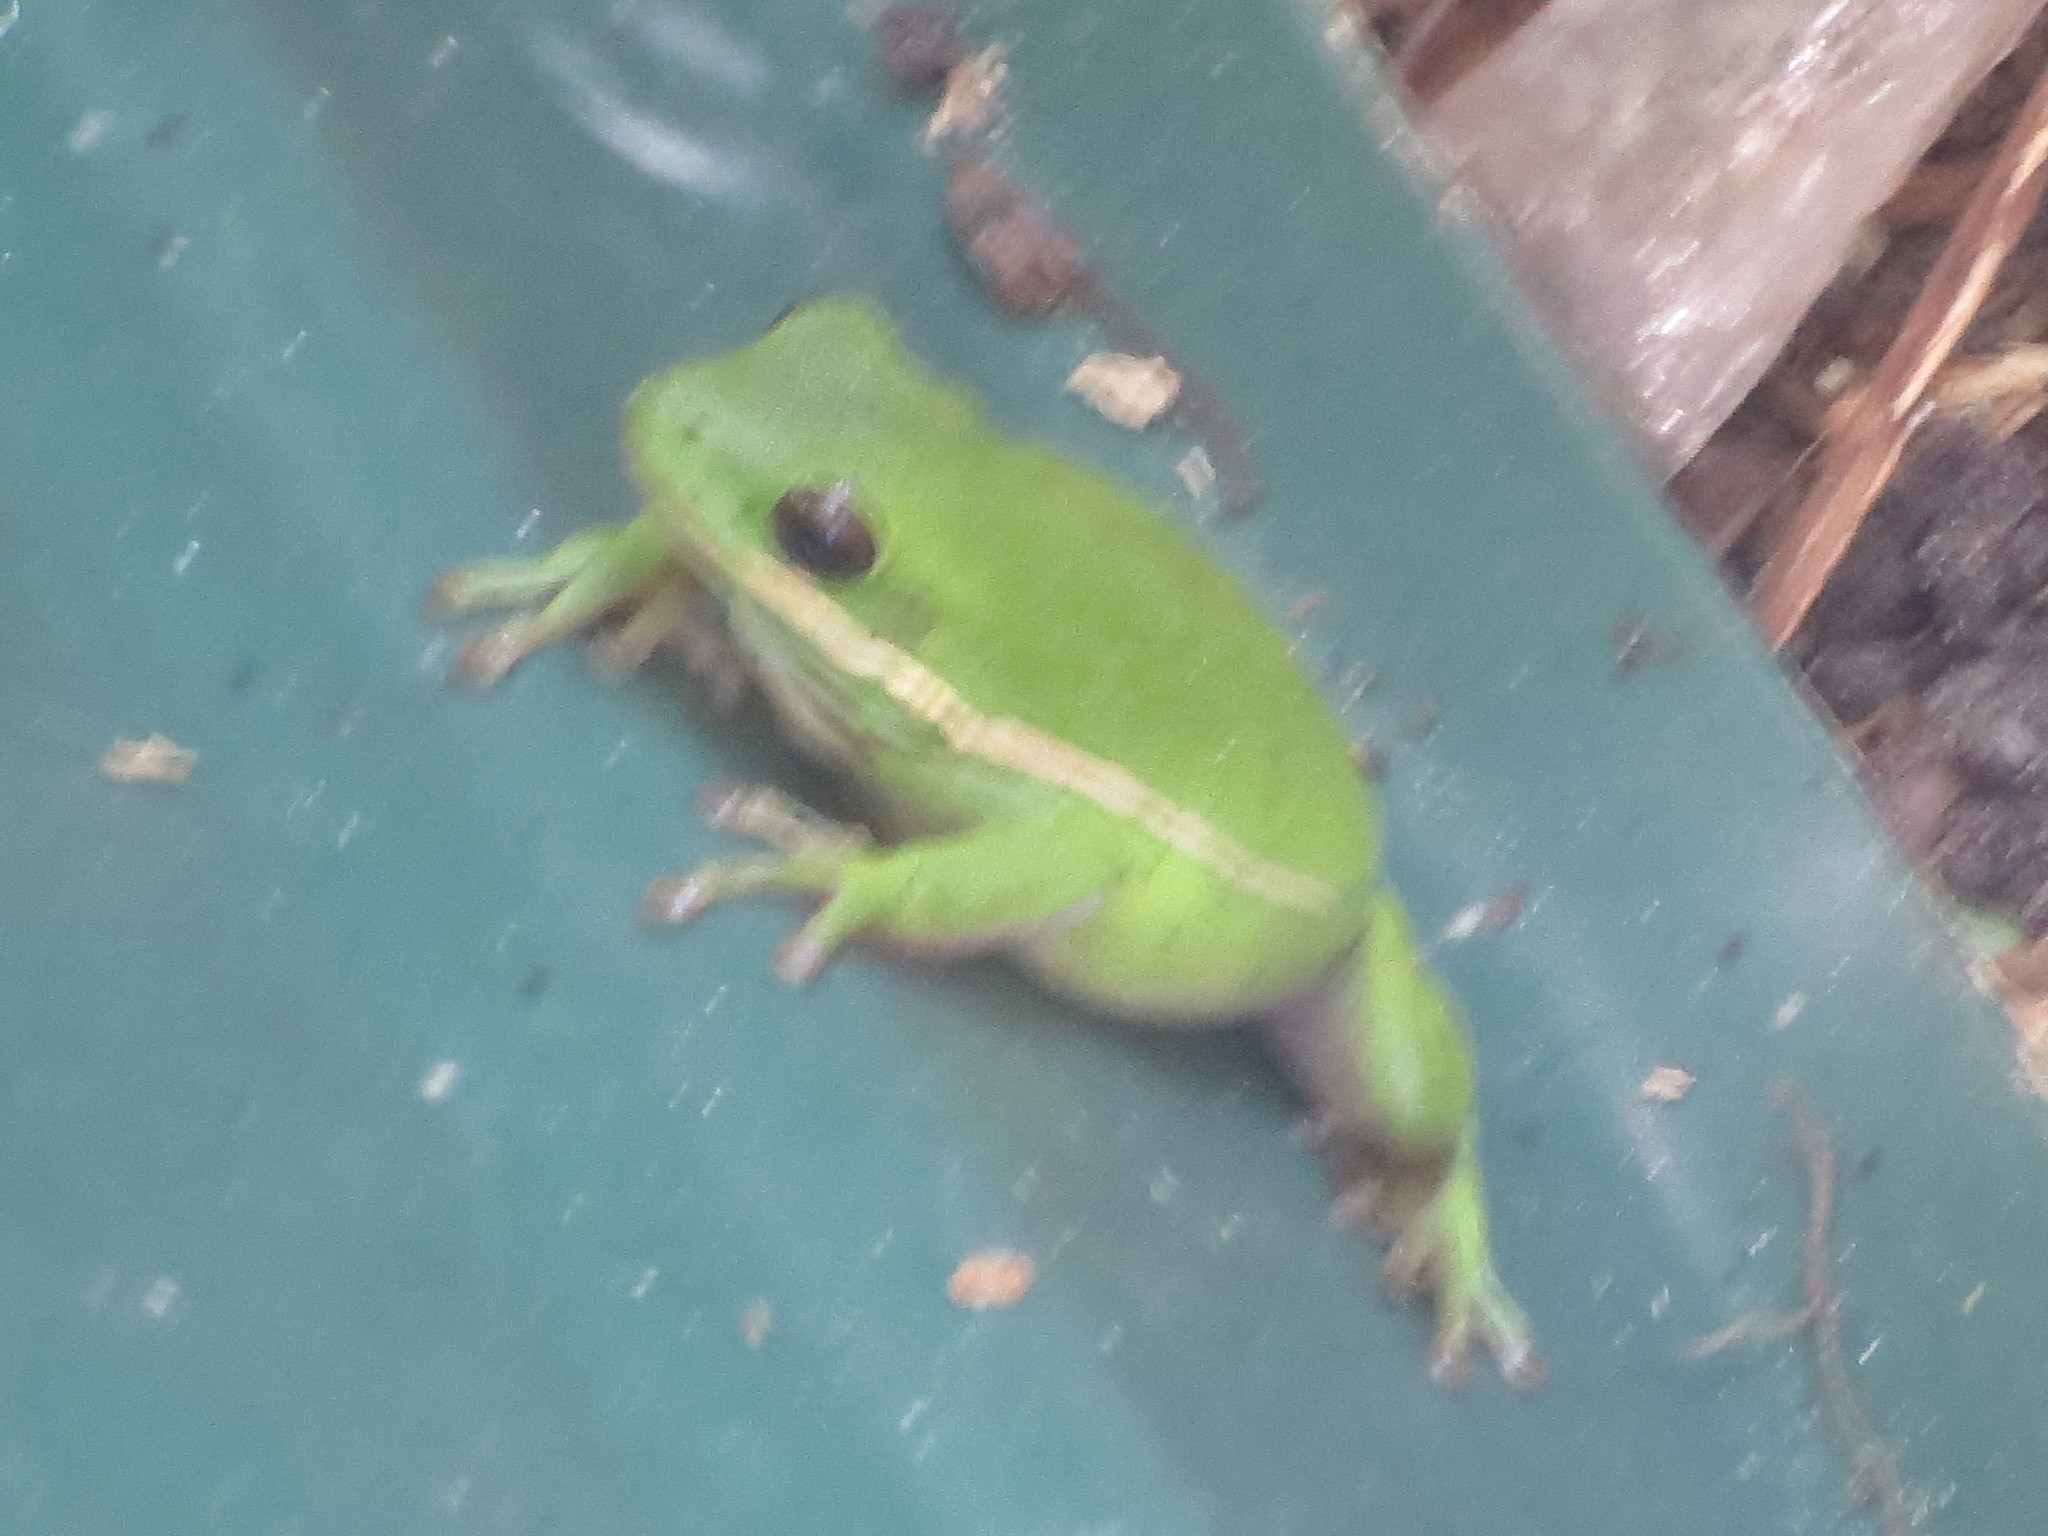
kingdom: Animalia
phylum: Chordata
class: Amphibia
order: Anura
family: Hylidae
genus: Dryophytes
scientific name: Dryophytes cinereus
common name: Green treefrog
